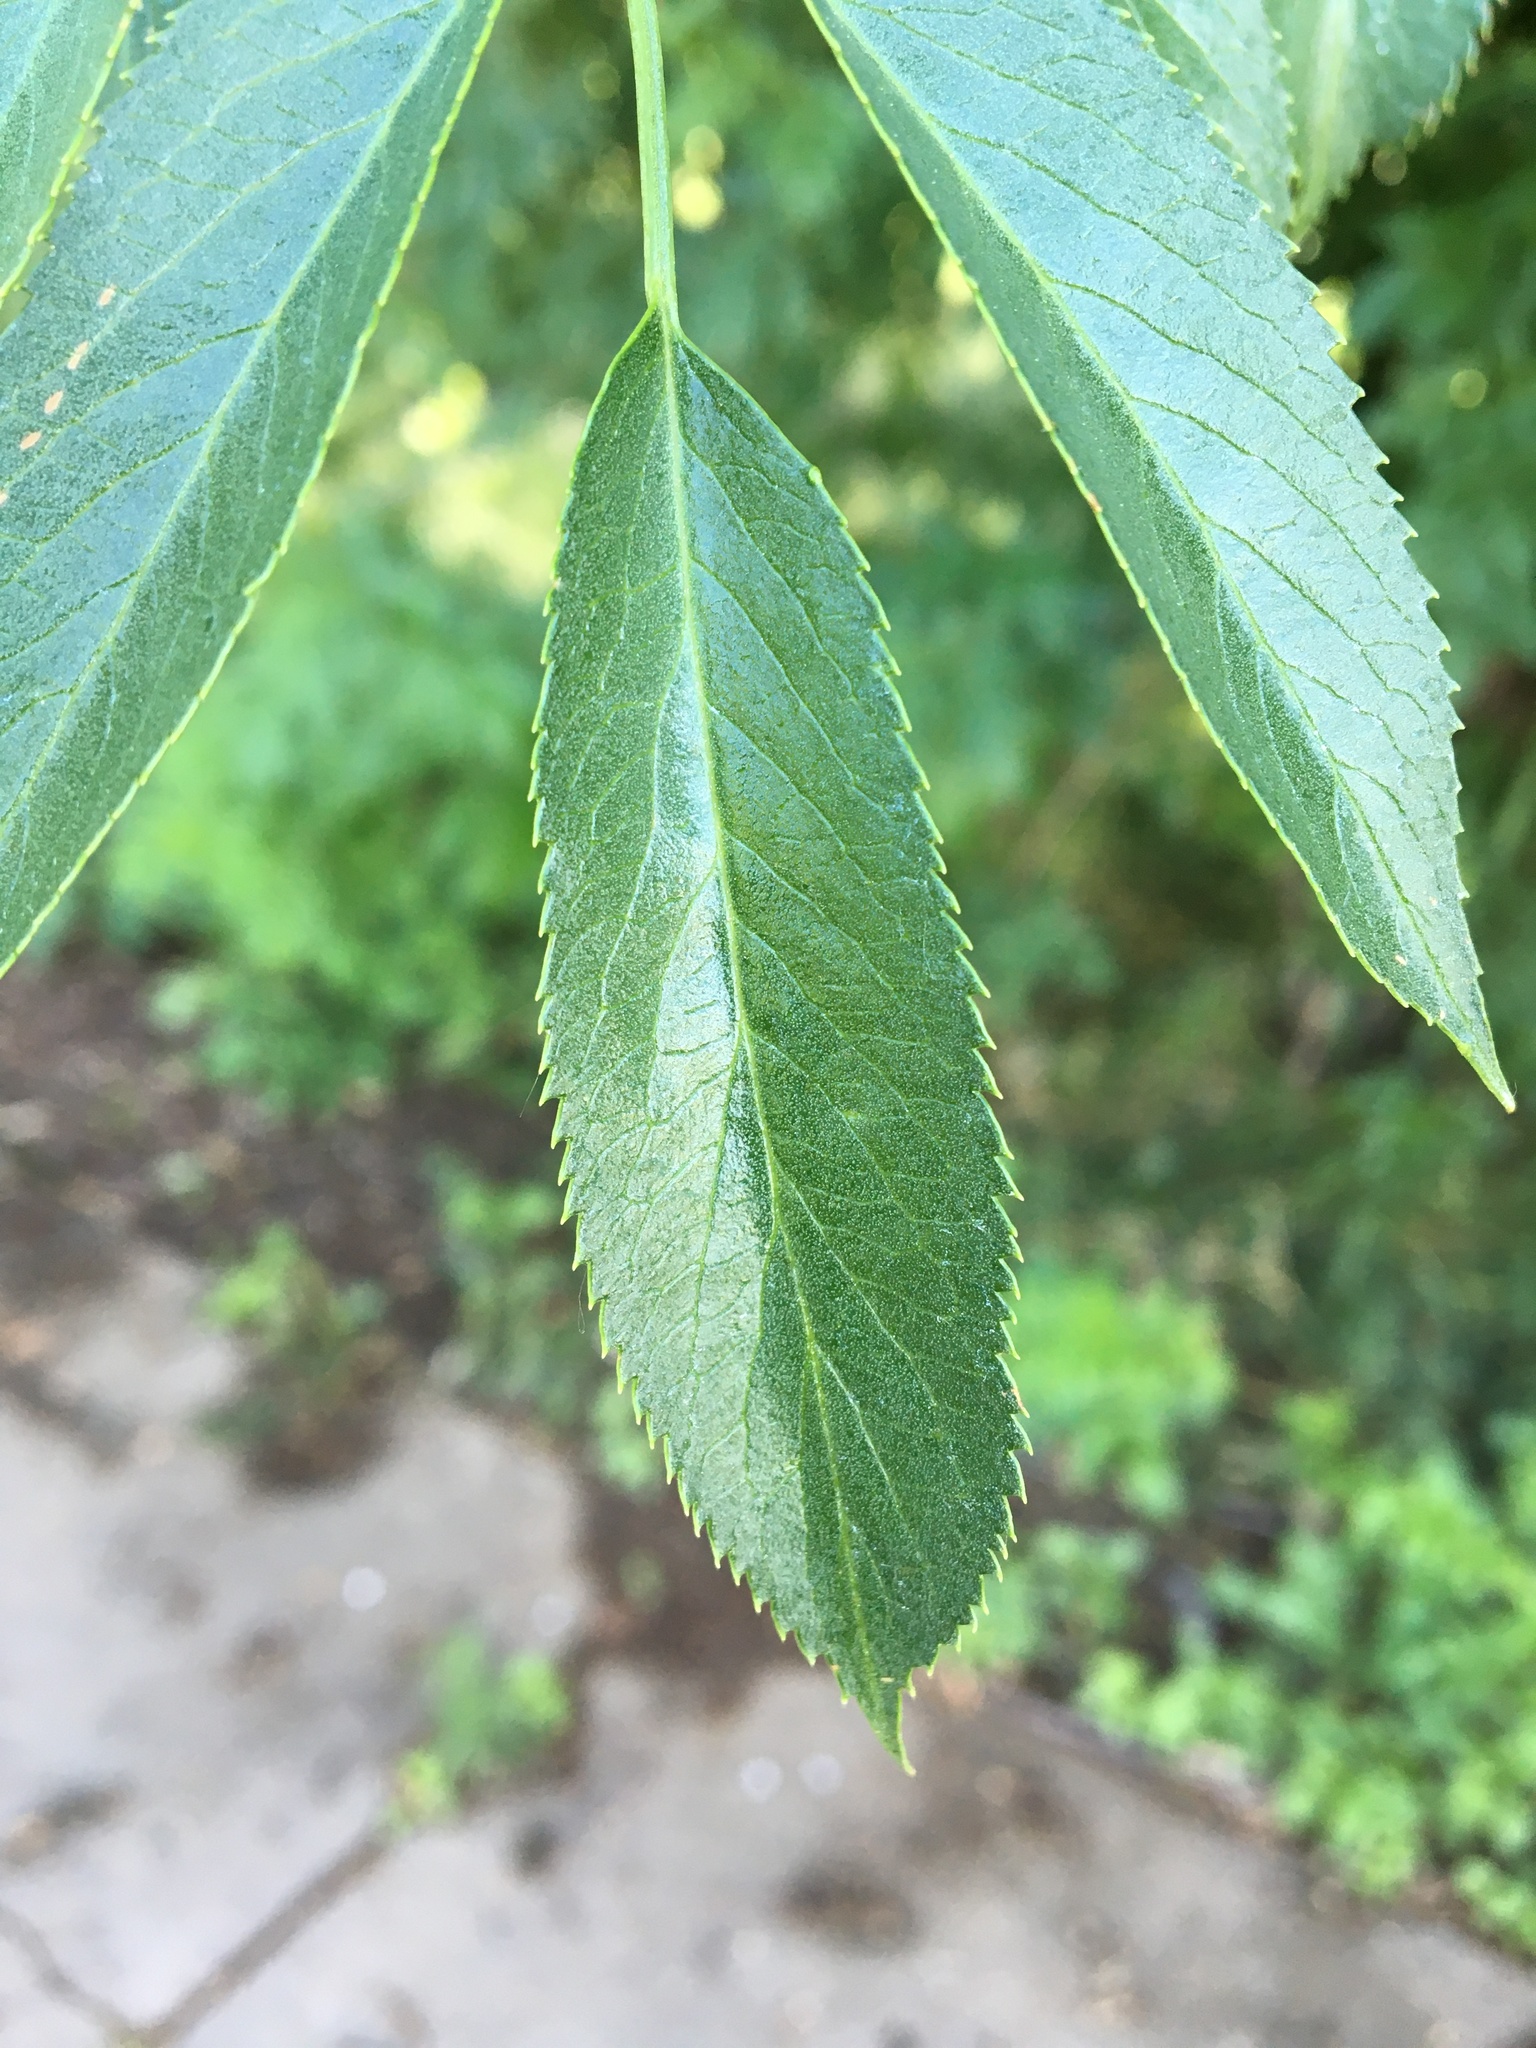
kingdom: Plantae
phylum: Tracheophyta
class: Magnoliopsida
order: Dipsacales
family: Viburnaceae
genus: Sambucus
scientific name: Sambucus cerulea
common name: Blue elder
